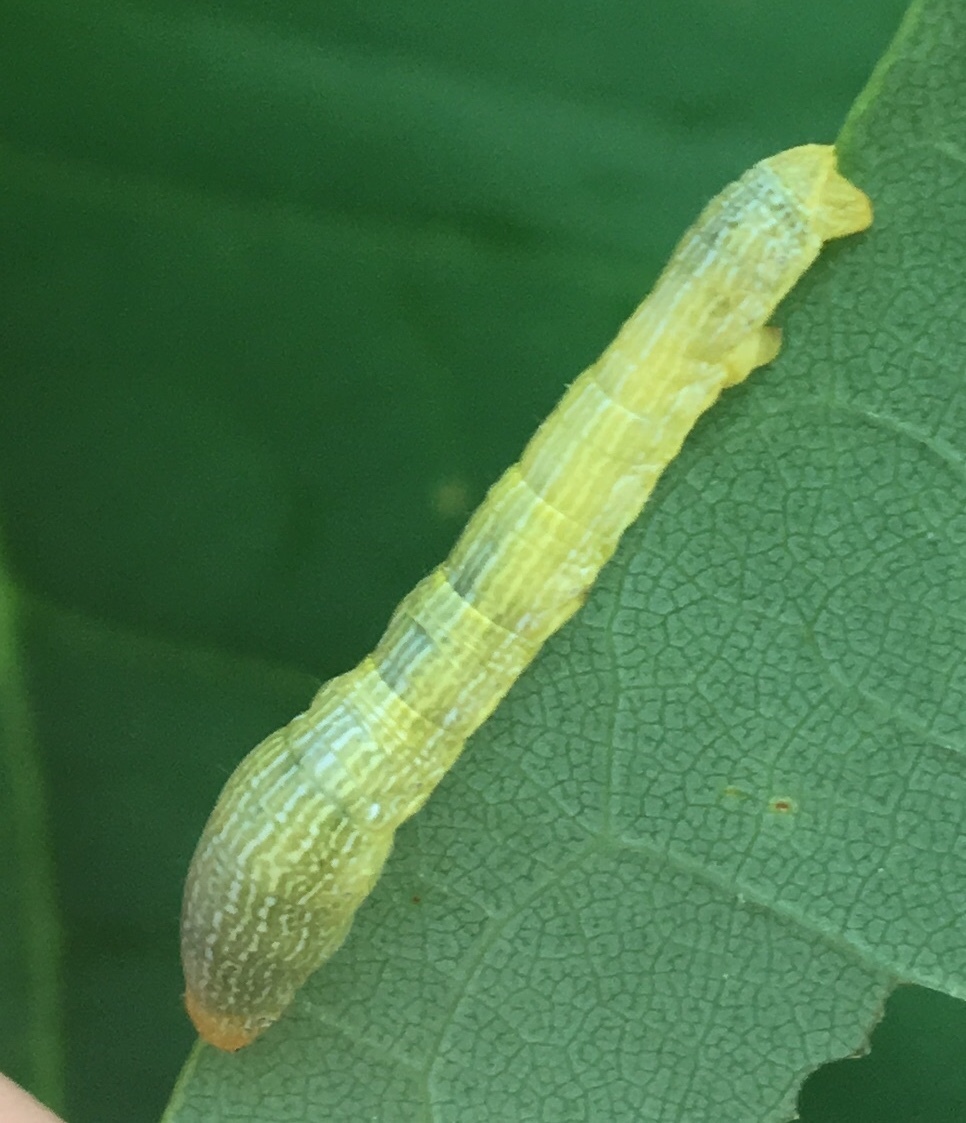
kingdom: Animalia
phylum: Arthropoda
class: Insecta
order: Lepidoptera
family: Geometridae
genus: Epimecis
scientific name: Epimecis hortaria
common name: Tulip-tree beauty
